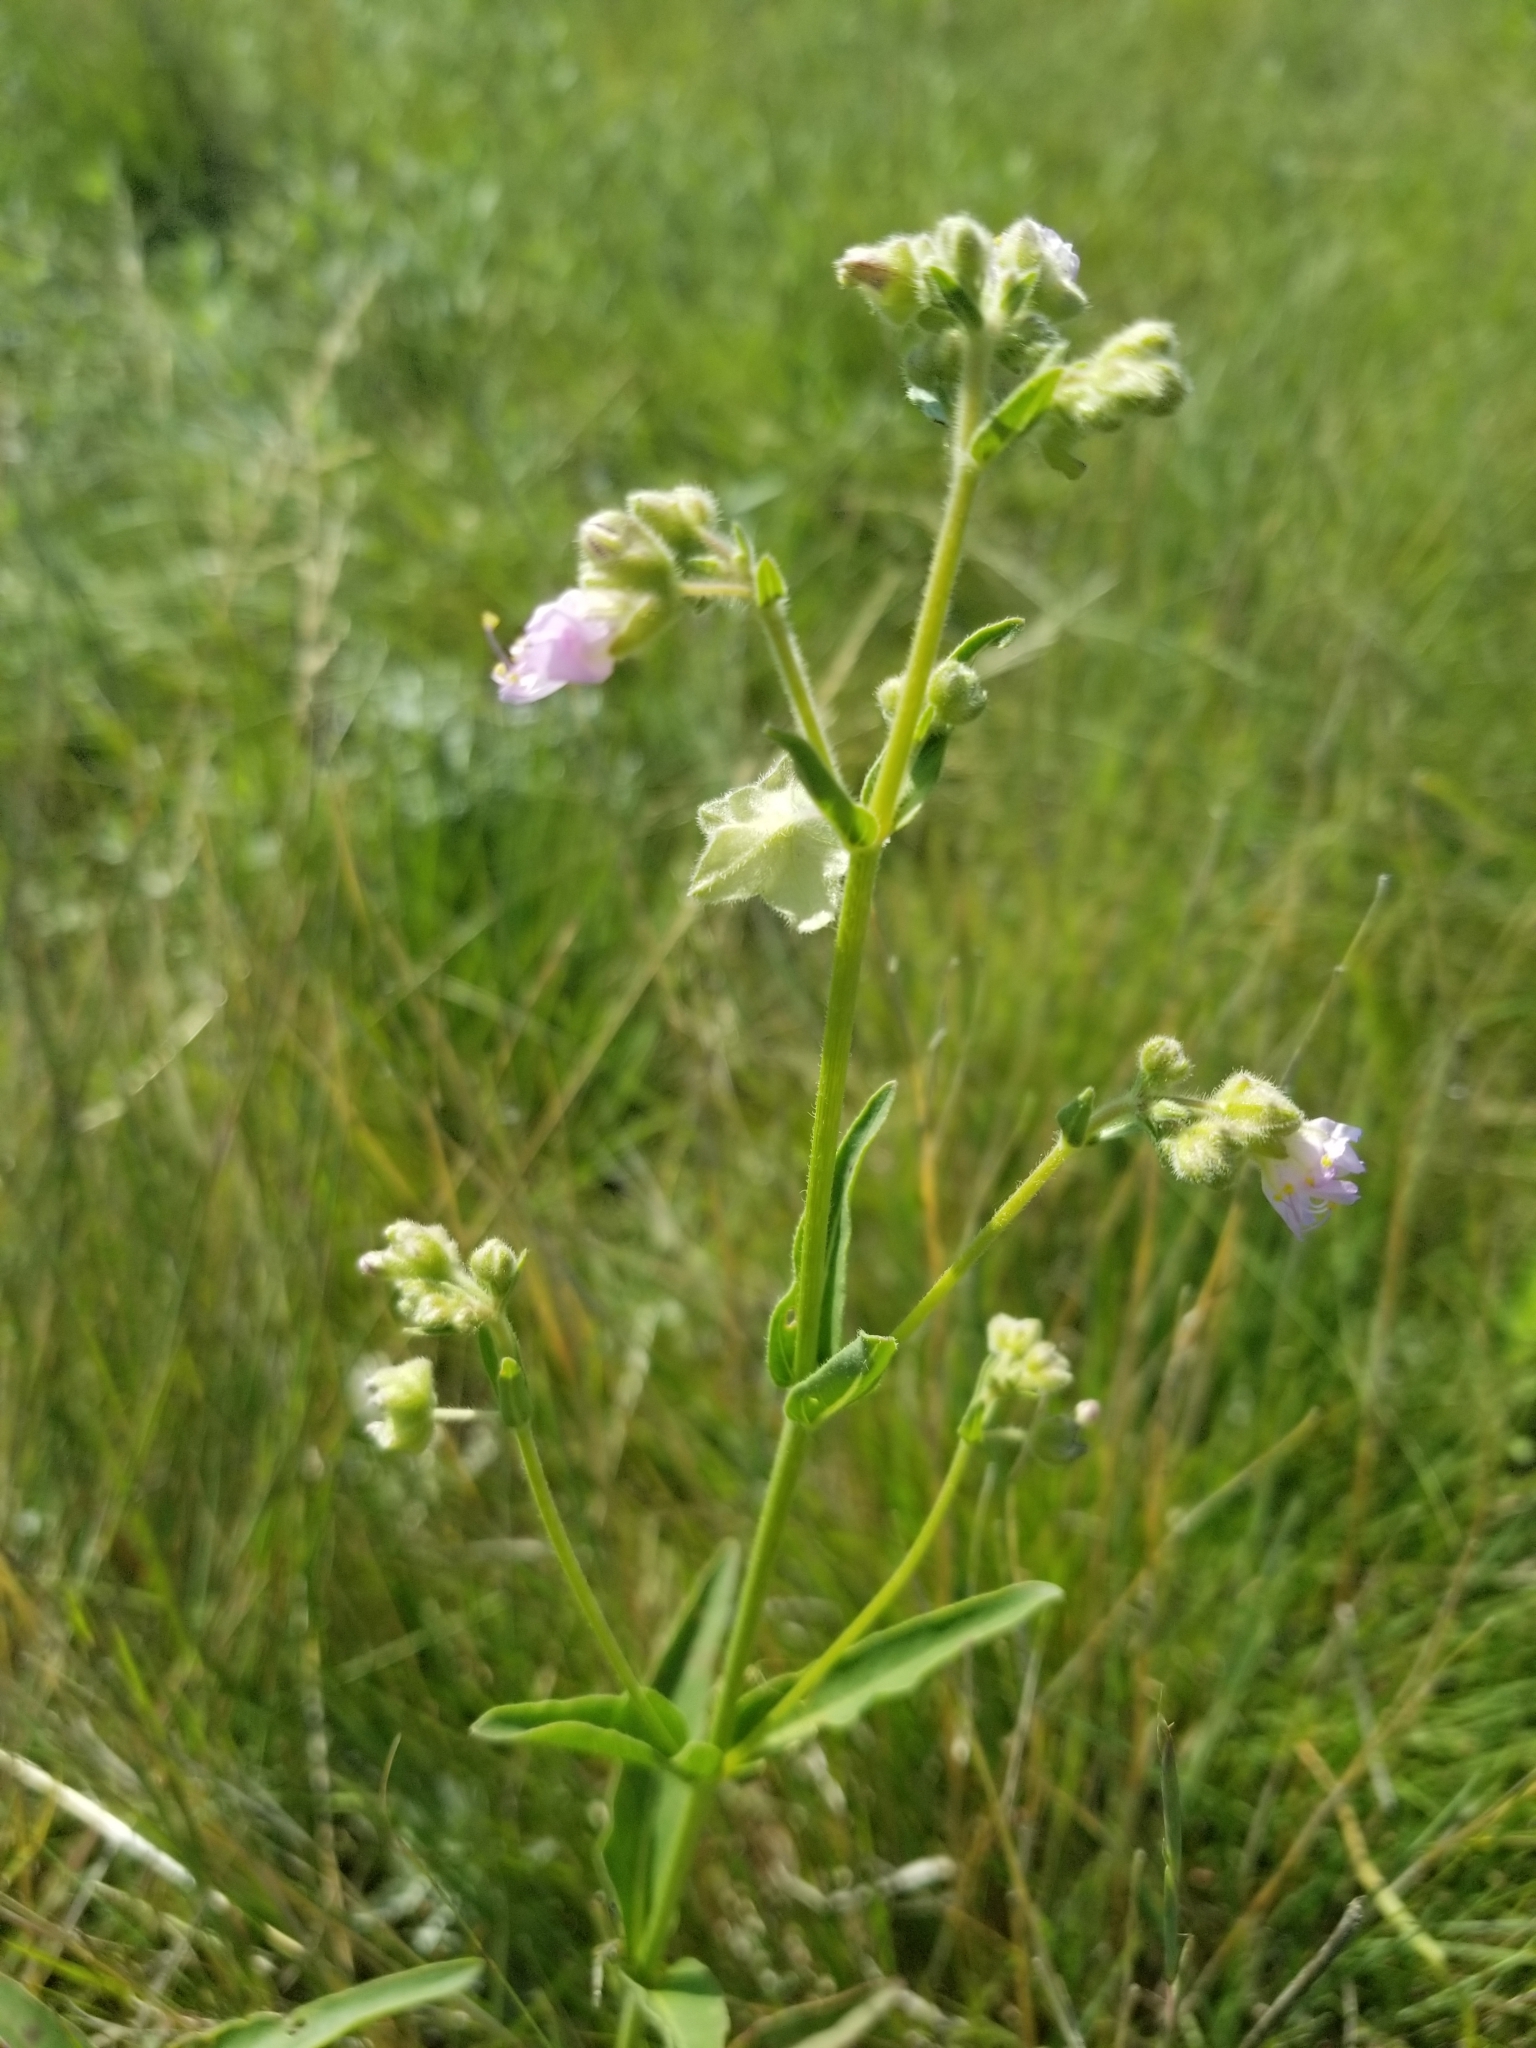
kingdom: Plantae
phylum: Tracheophyta
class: Magnoliopsida
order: Caryophyllales
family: Nyctaginaceae
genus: Mirabilis
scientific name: Mirabilis nyctaginea
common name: Umbrella wort
